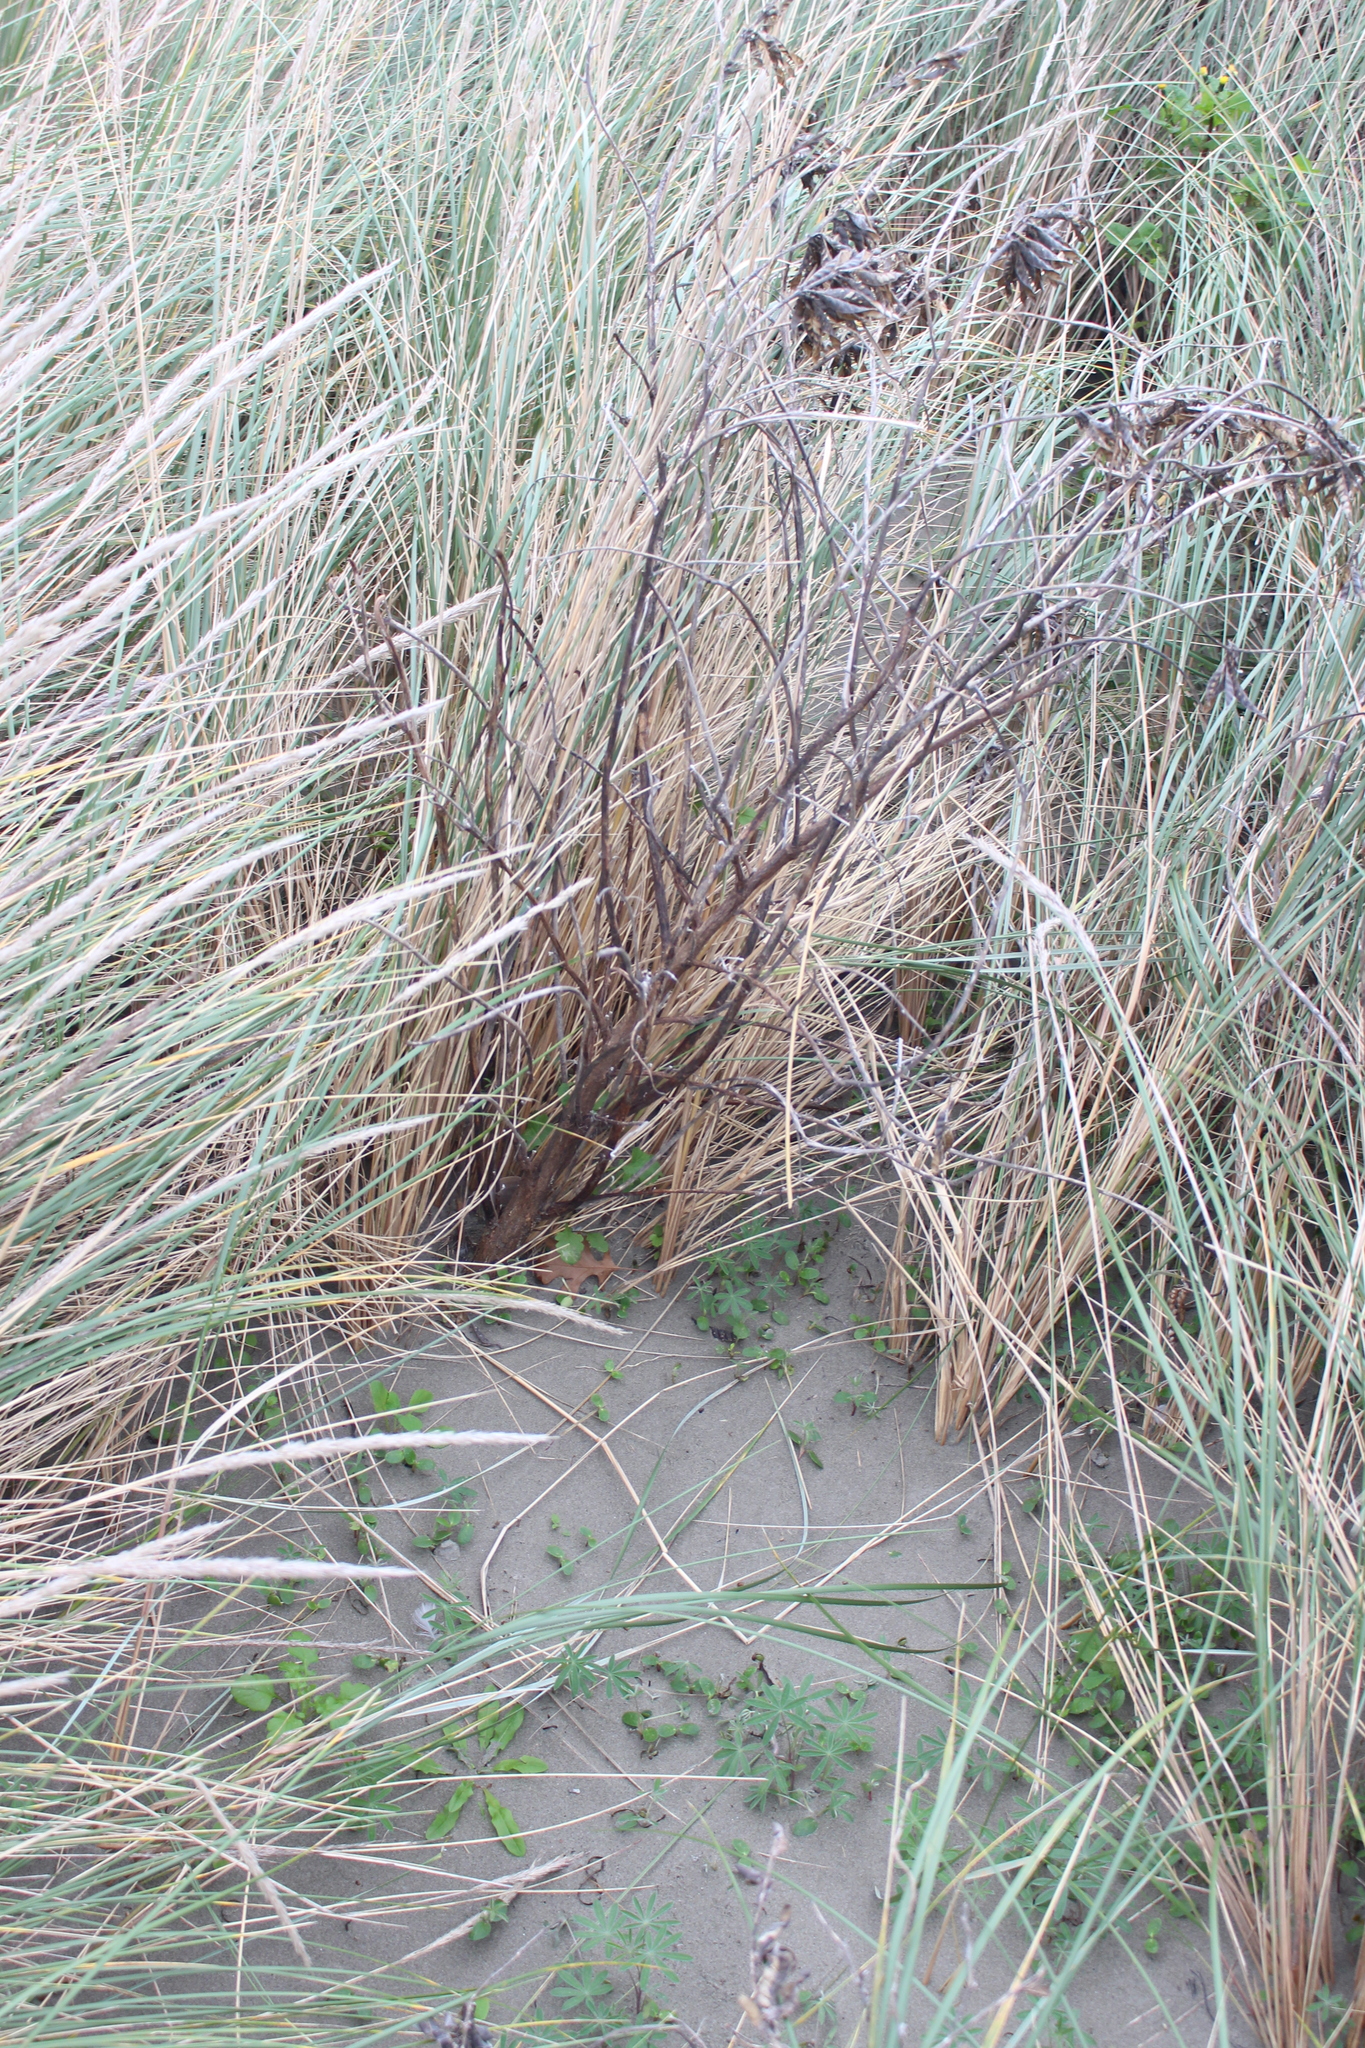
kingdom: Plantae
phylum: Tracheophyta
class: Magnoliopsida
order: Fabales
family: Fabaceae
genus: Lupinus
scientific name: Lupinus arboreus
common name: Yellow bush lupine
